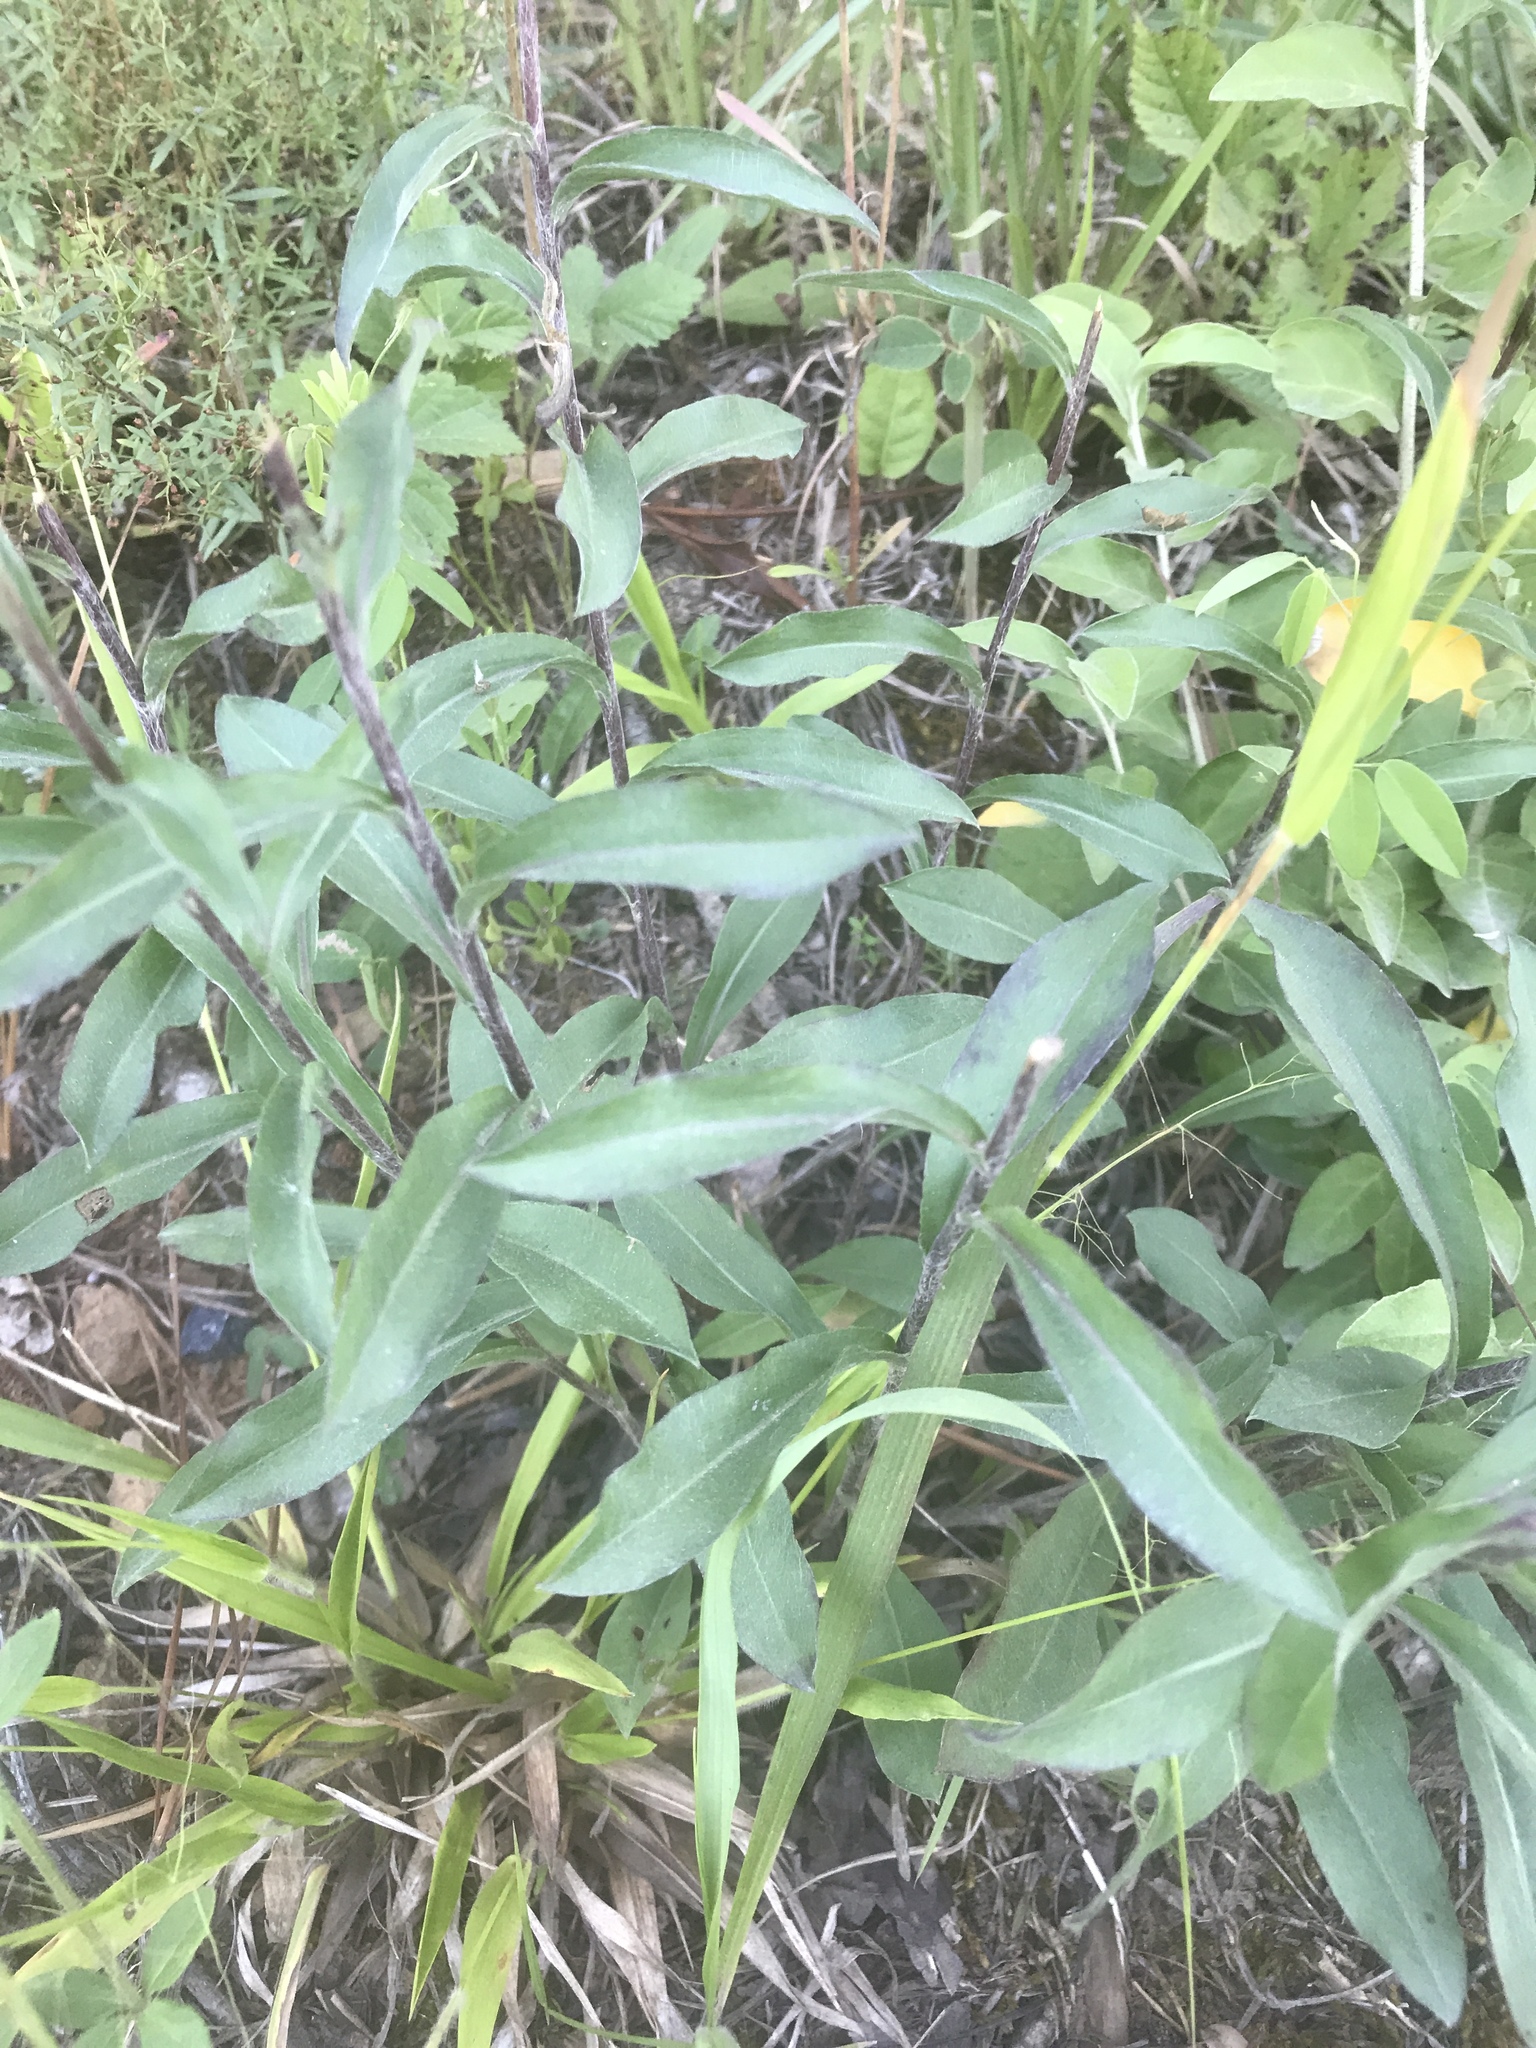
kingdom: Plantae
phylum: Tracheophyta
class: Magnoliopsida
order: Asterales
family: Asteraceae
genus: Solidago
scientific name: Solidago nemoralis
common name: Grey goldenrod
